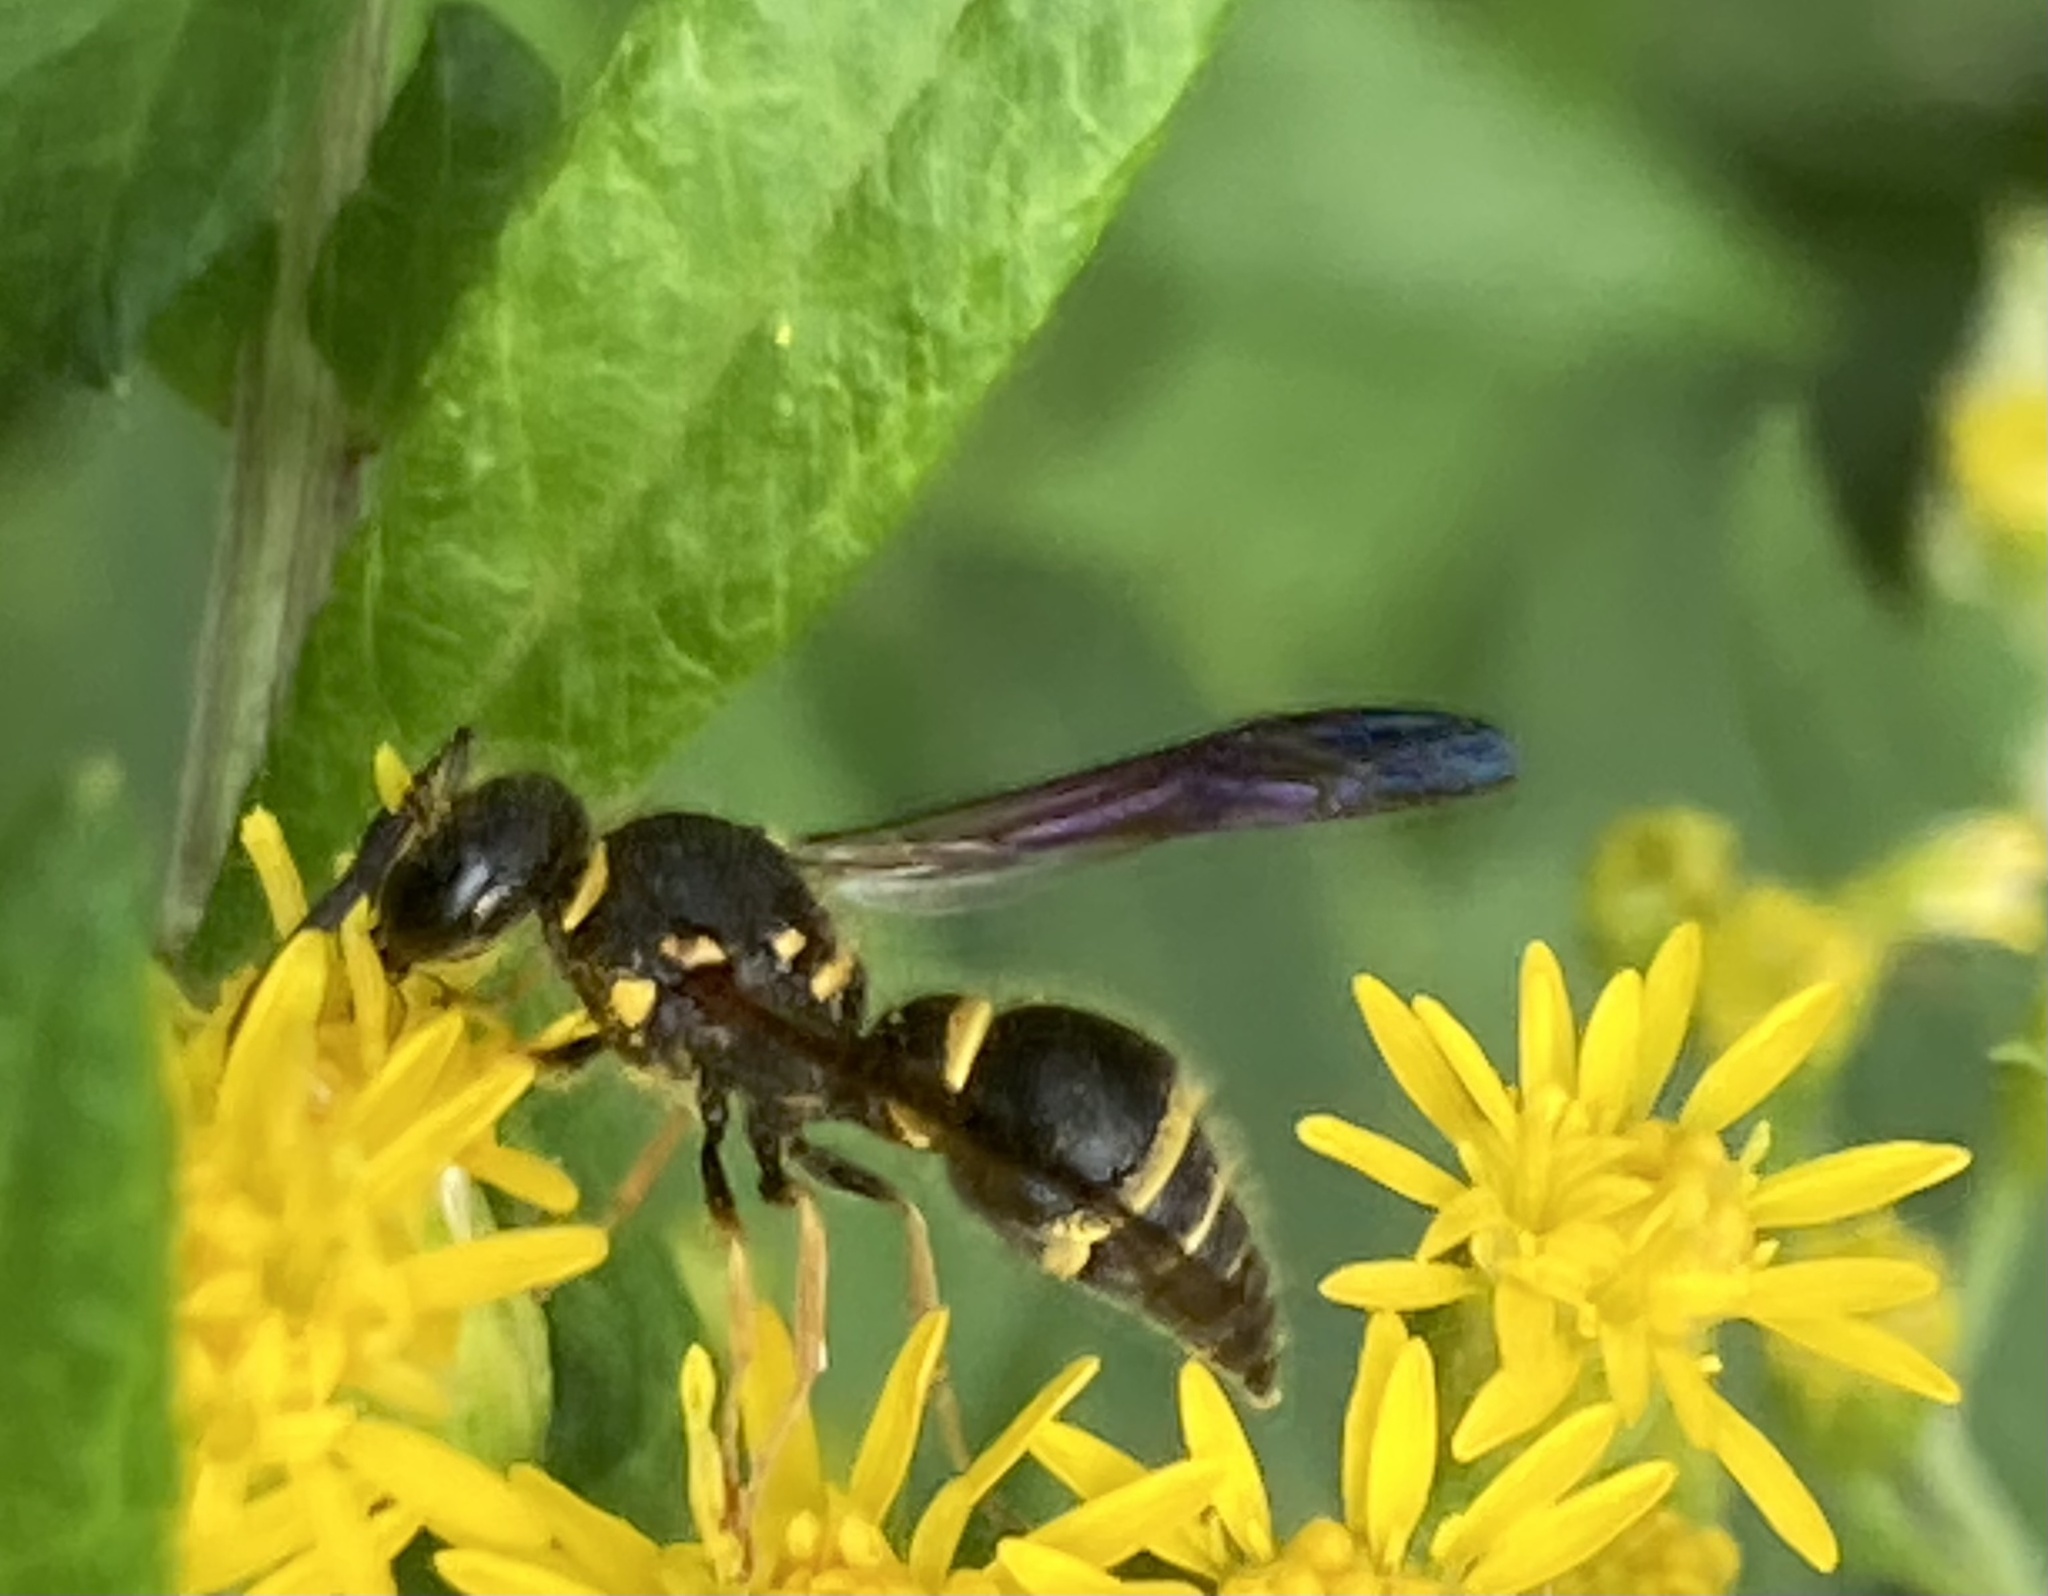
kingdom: Animalia
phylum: Arthropoda
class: Insecta
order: Hymenoptera
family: Vespidae
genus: Ancistrocerus
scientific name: Ancistrocerus campestris
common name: Smiling mason wasp
